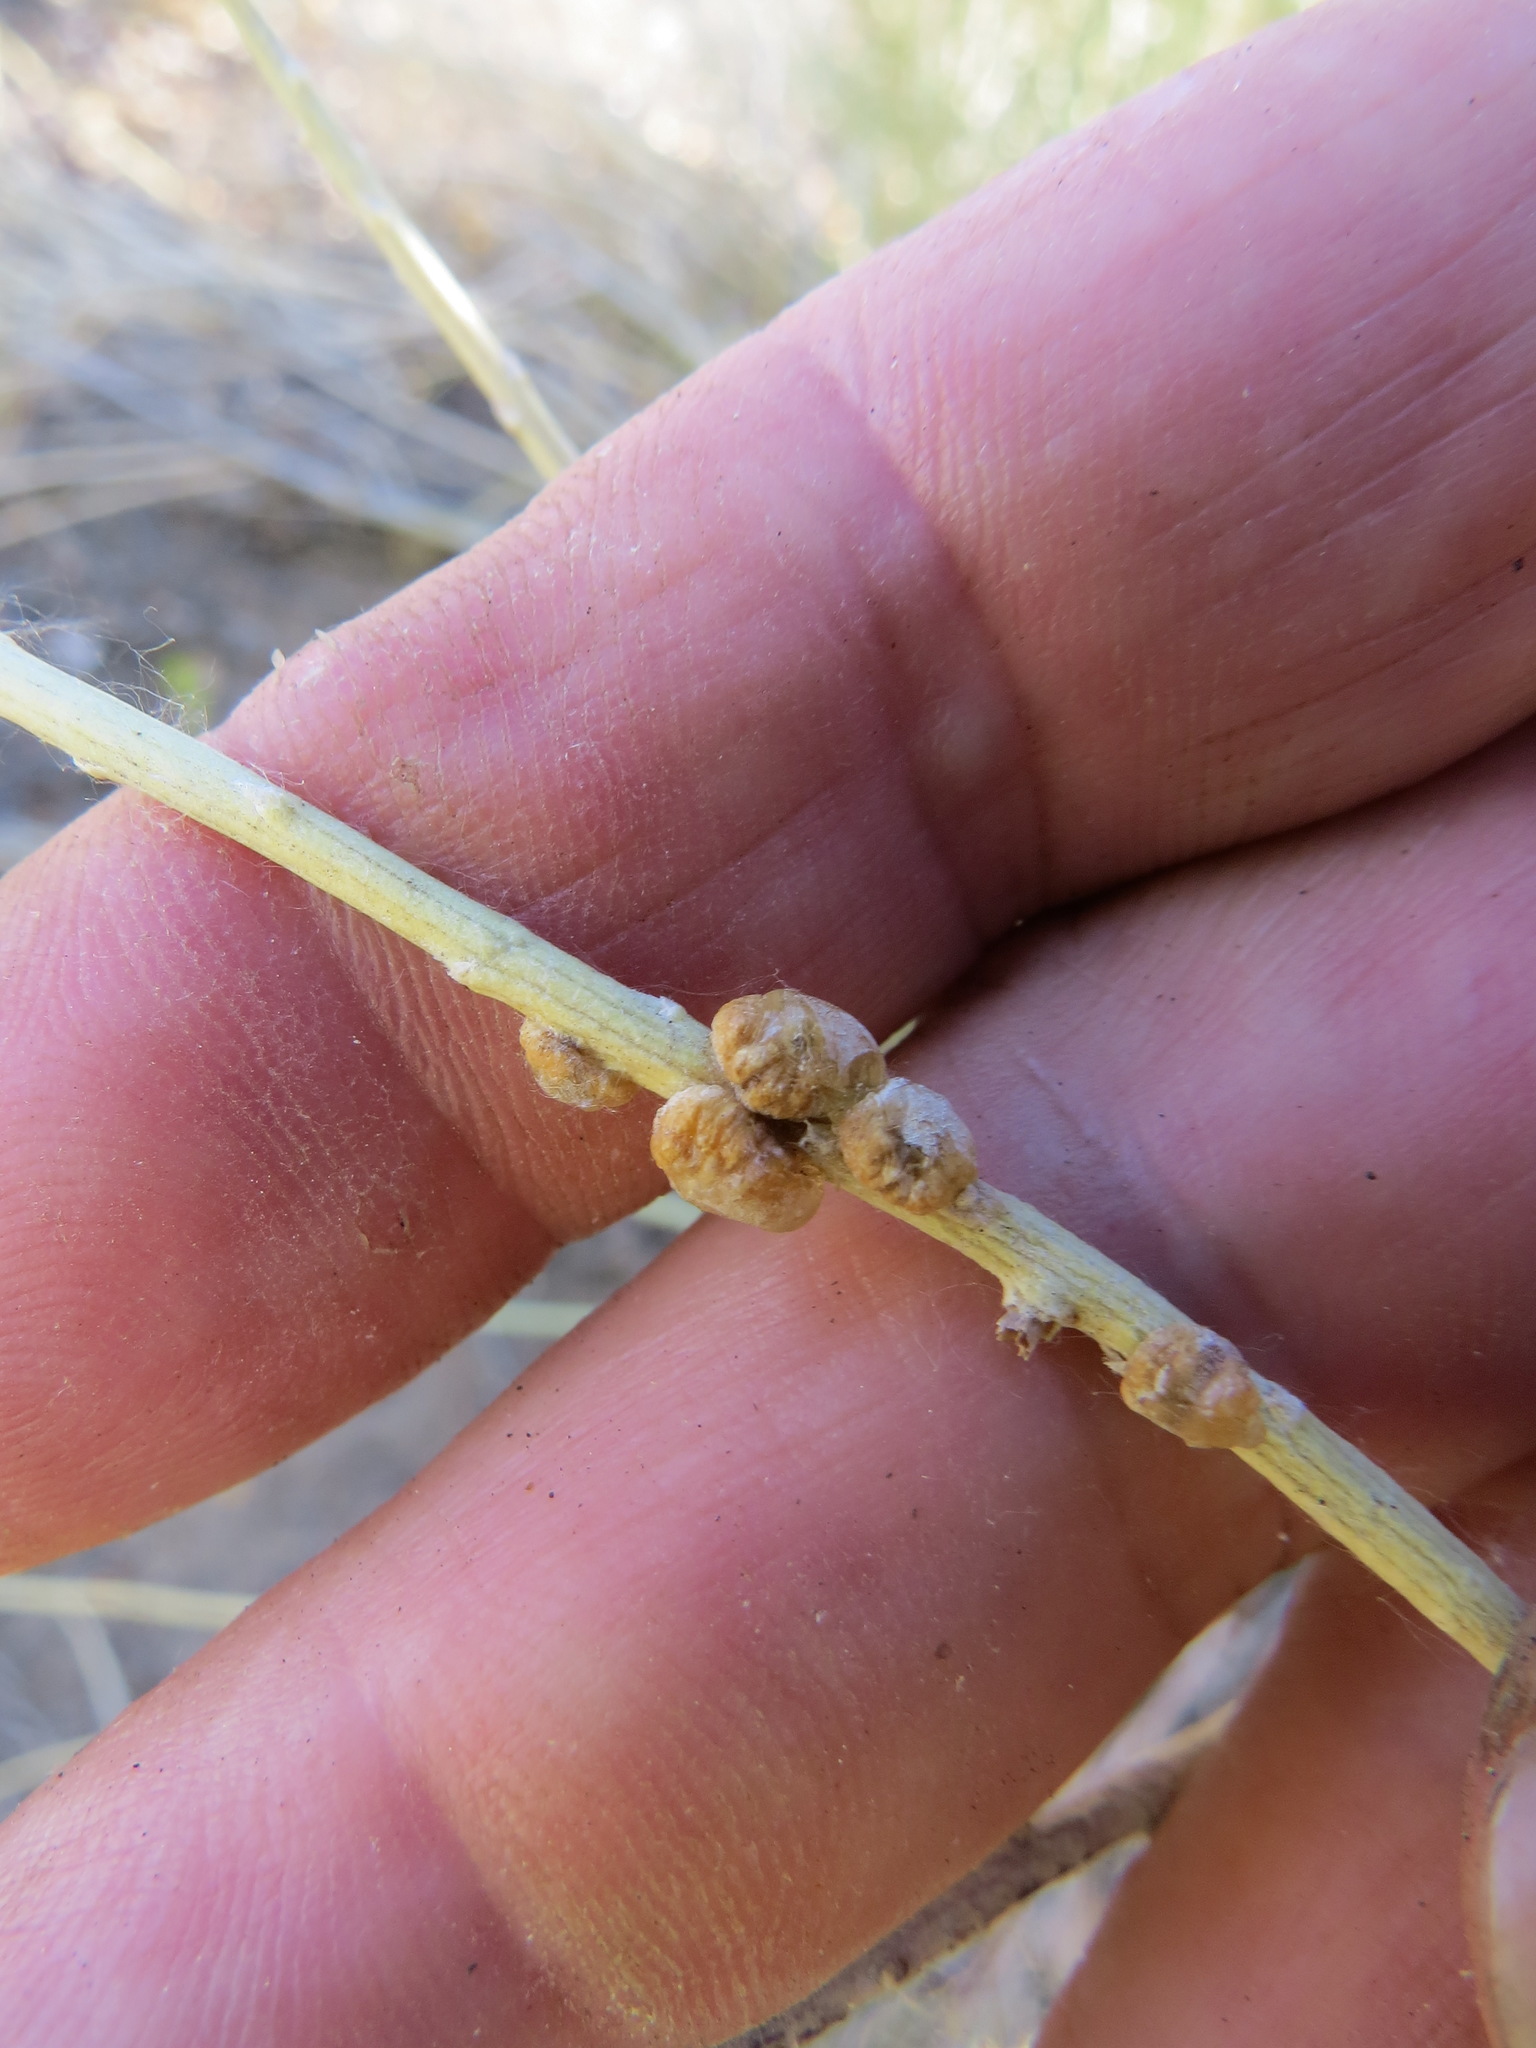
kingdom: Animalia
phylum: Arthropoda
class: Insecta
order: Diptera
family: Cecidomyiidae
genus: Rhopalomyia
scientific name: Rhopalomyia glutinosa
